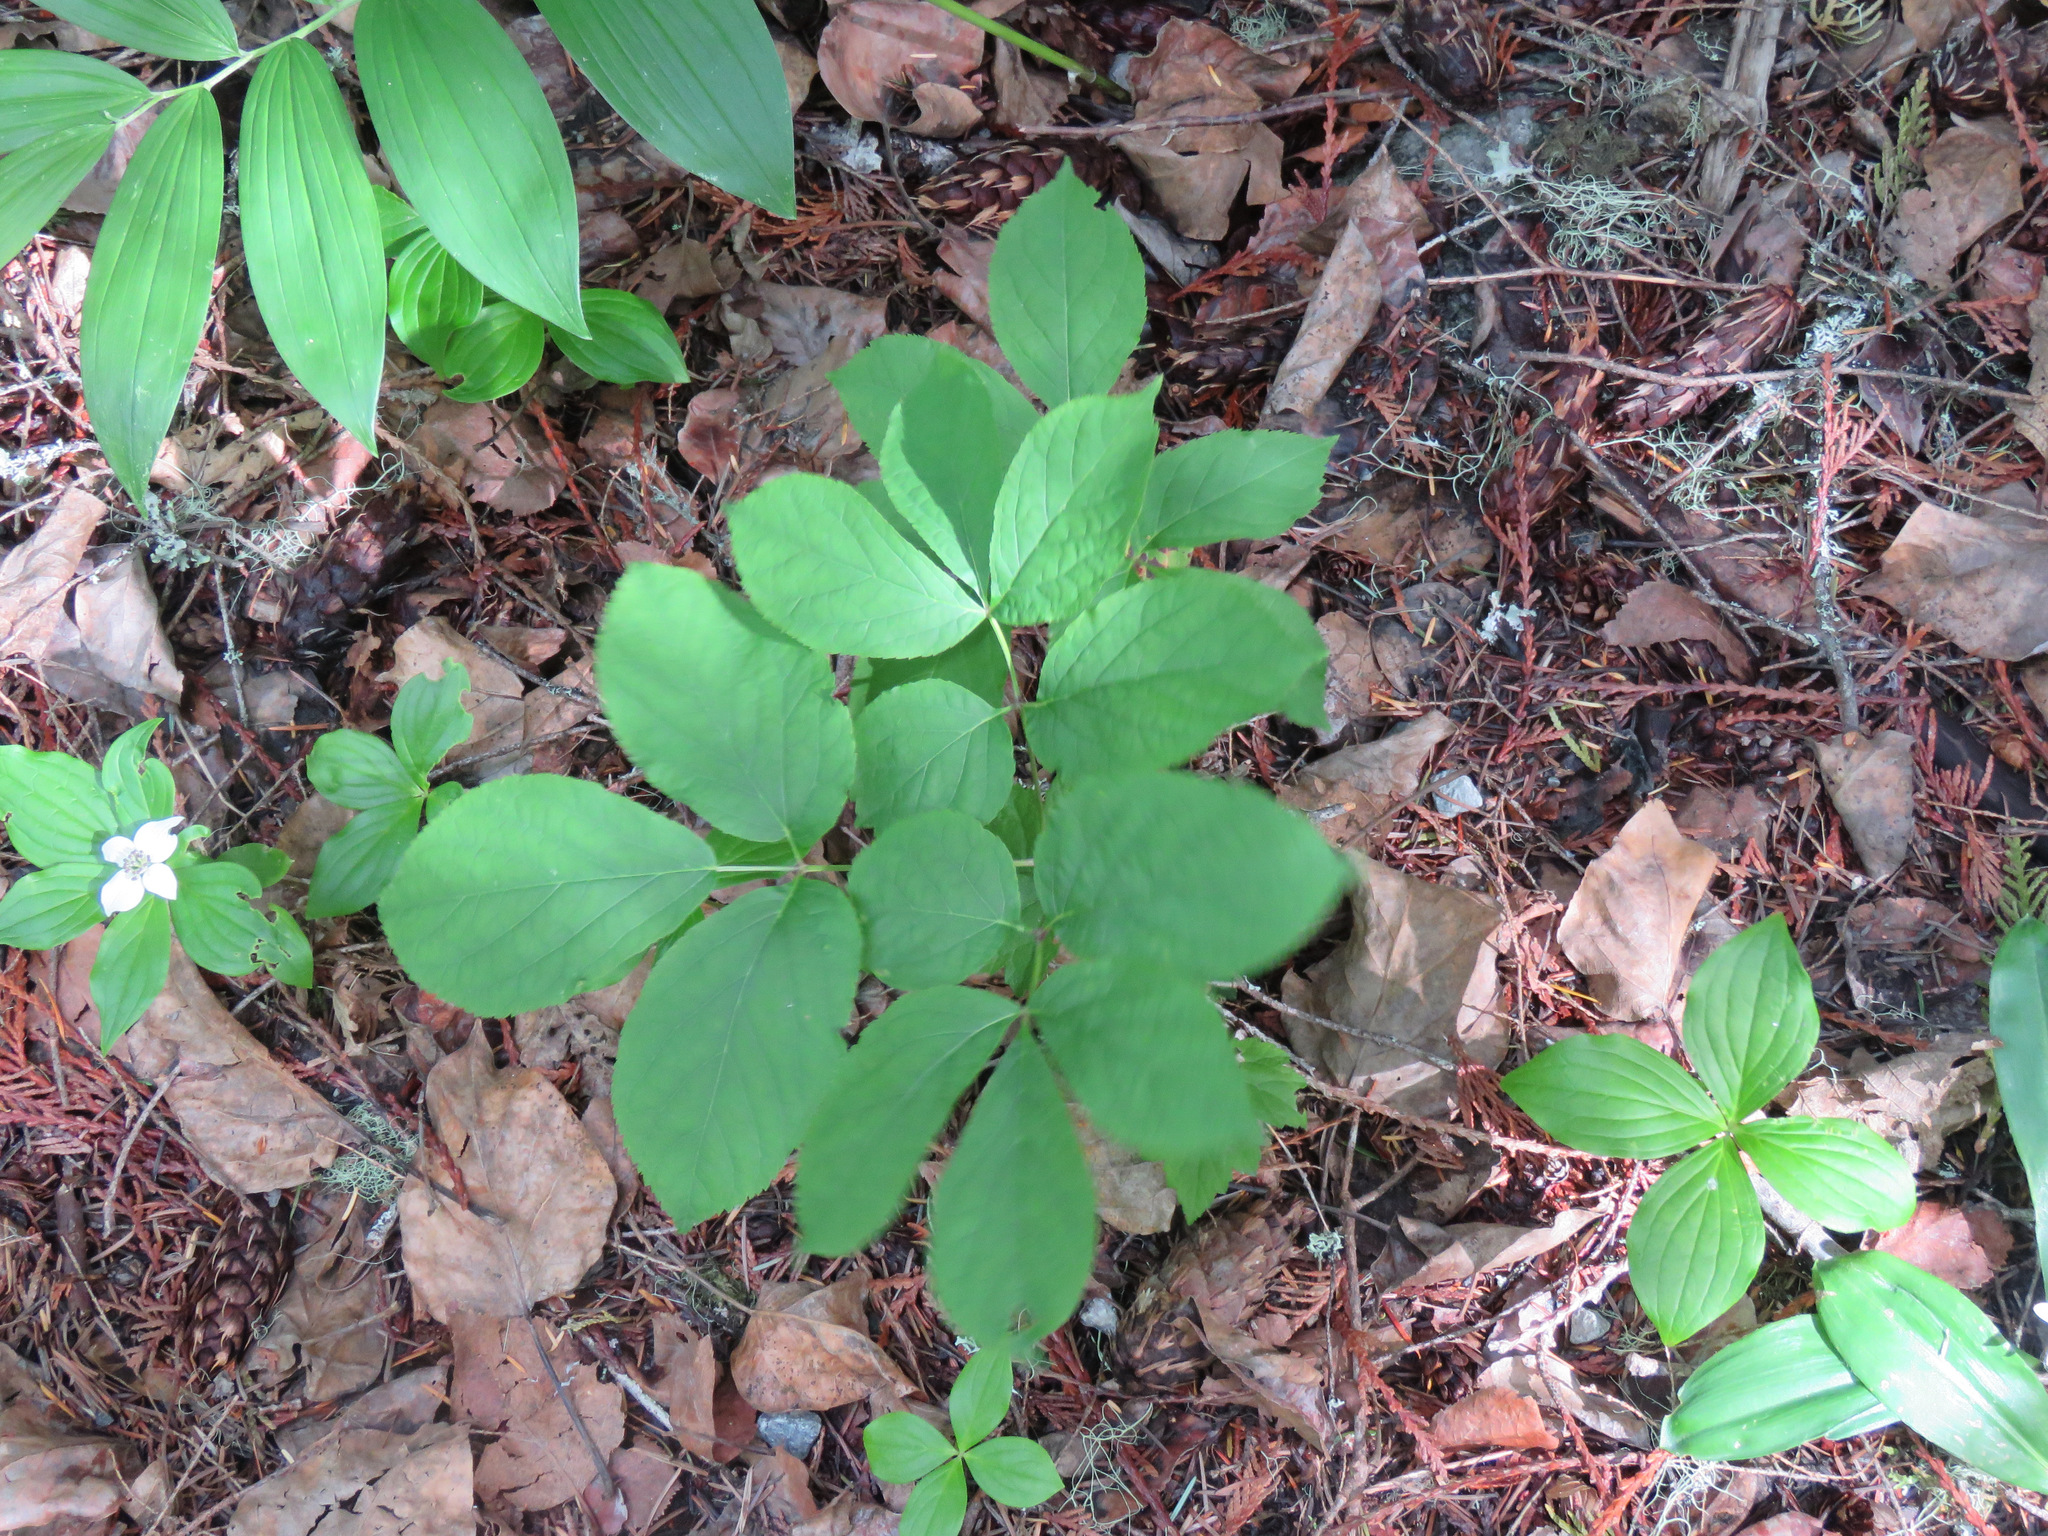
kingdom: Plantae
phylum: Tracheophyta
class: Magnoliopsida
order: Apiales
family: Araliaceae
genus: Aralia
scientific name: Aralia nudicaulis
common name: Wild sarsaparilla
